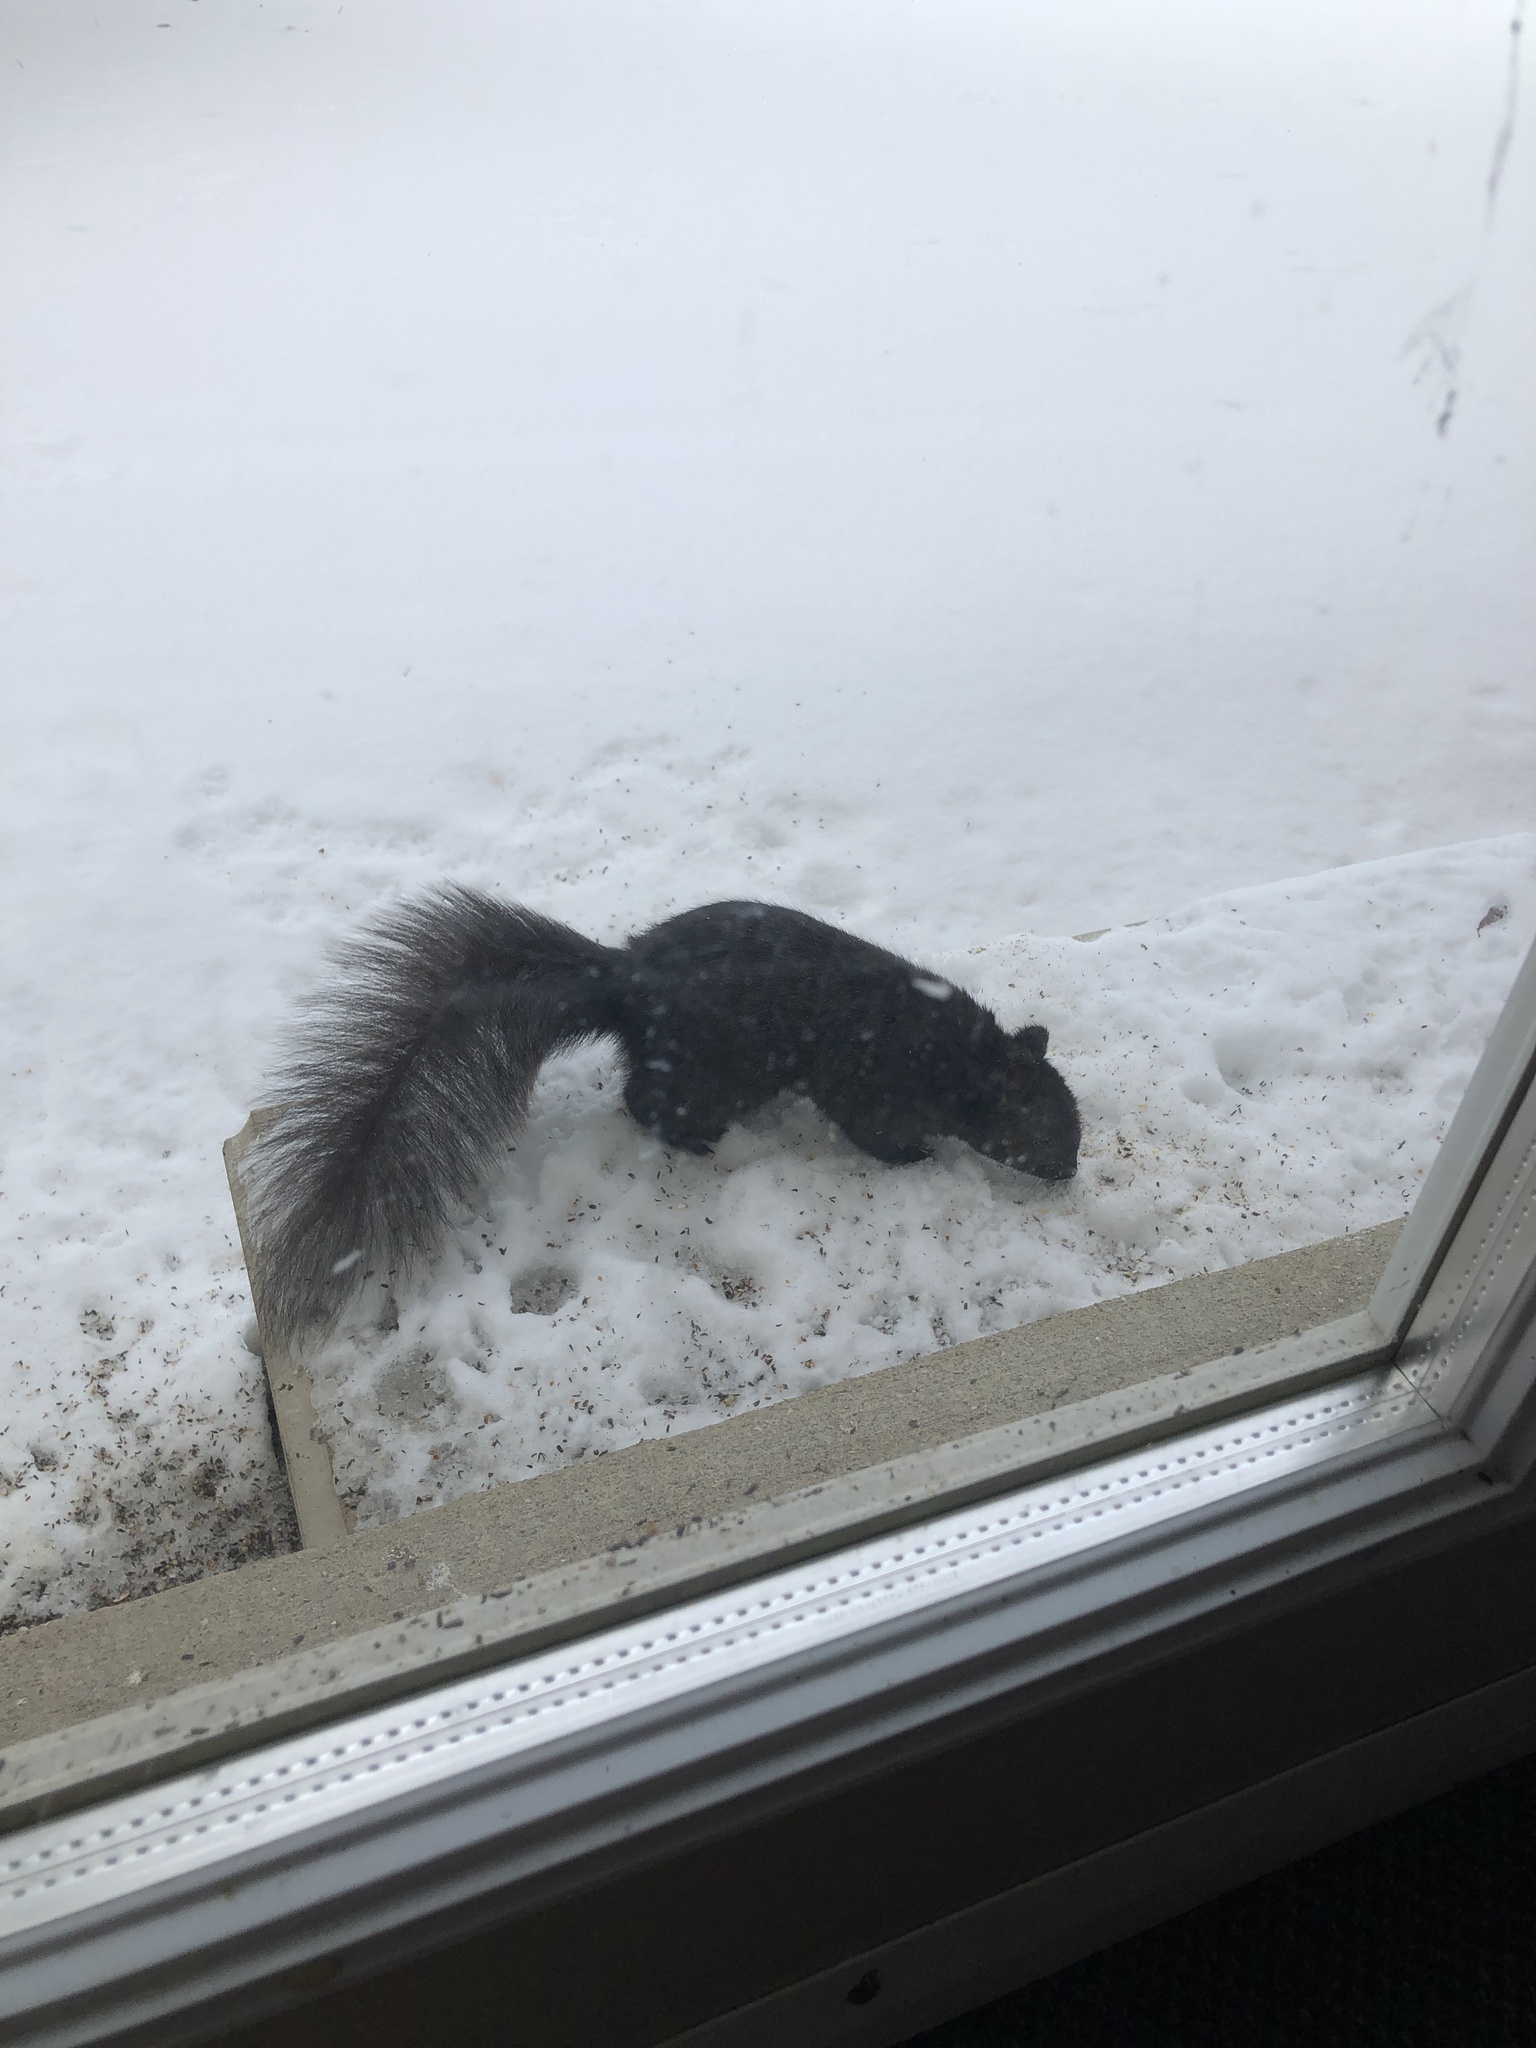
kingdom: Animalia
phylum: Chordata
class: Mammalia
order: Rodentia
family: Sciuridae
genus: Sciurus
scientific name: Sciurus carolinensis
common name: Eastern gray squirrel
